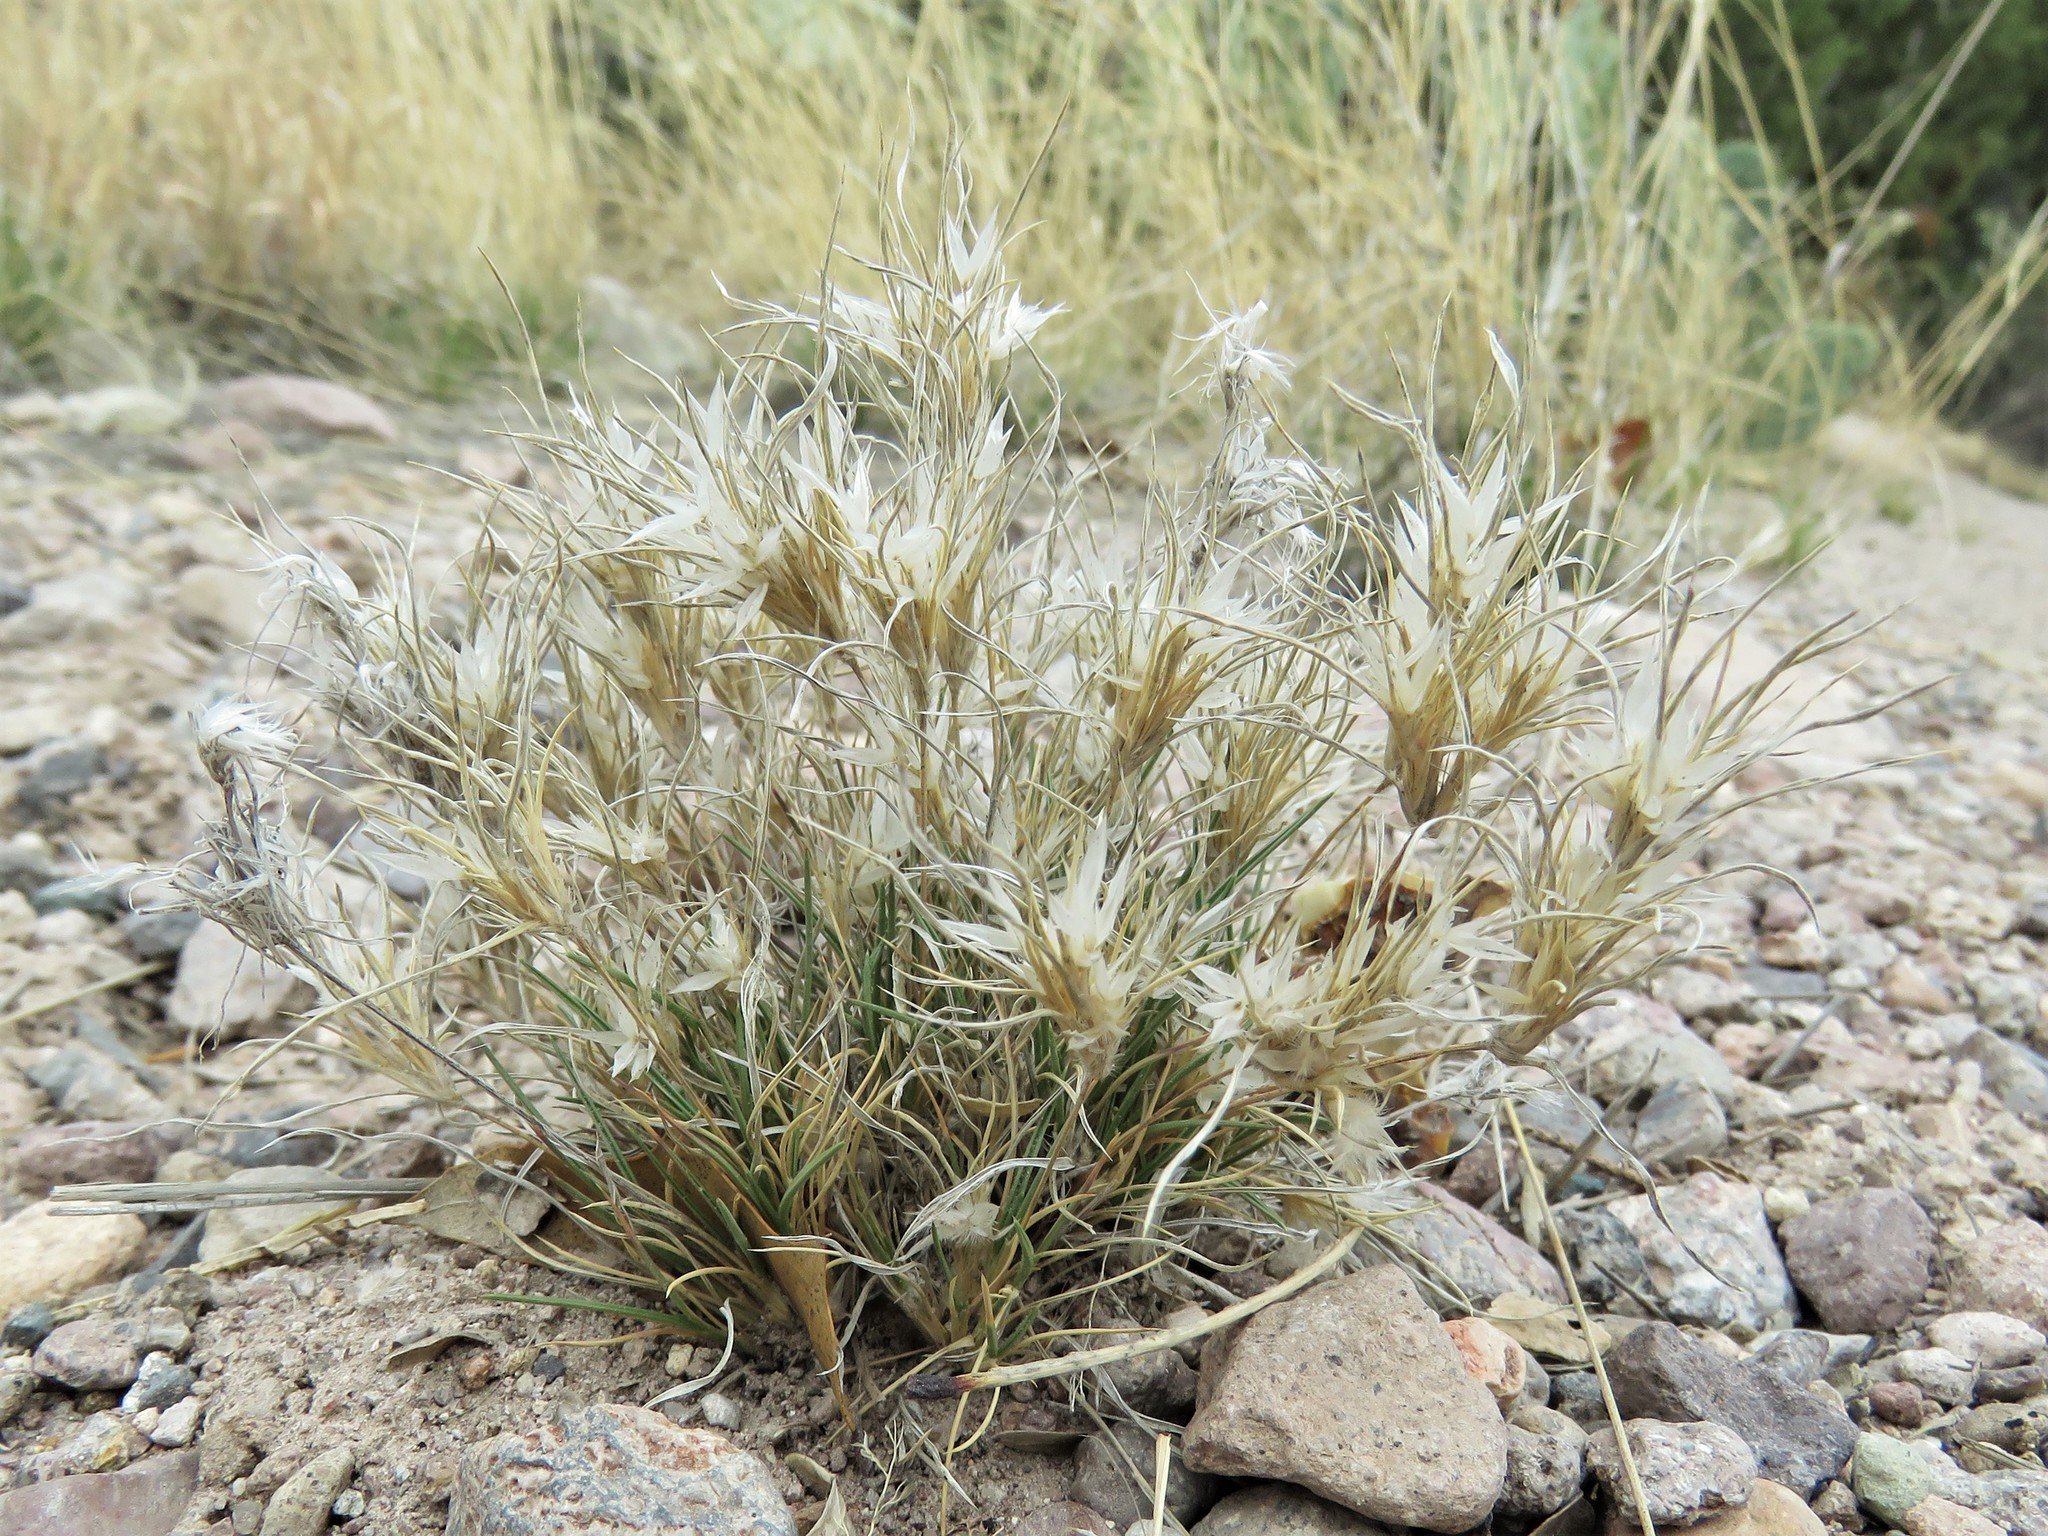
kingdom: Plantae
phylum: Tracheophyta
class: Liliopsida
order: Poales
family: Poaceae
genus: Dasyochloa
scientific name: Dasyochloa pulchella
